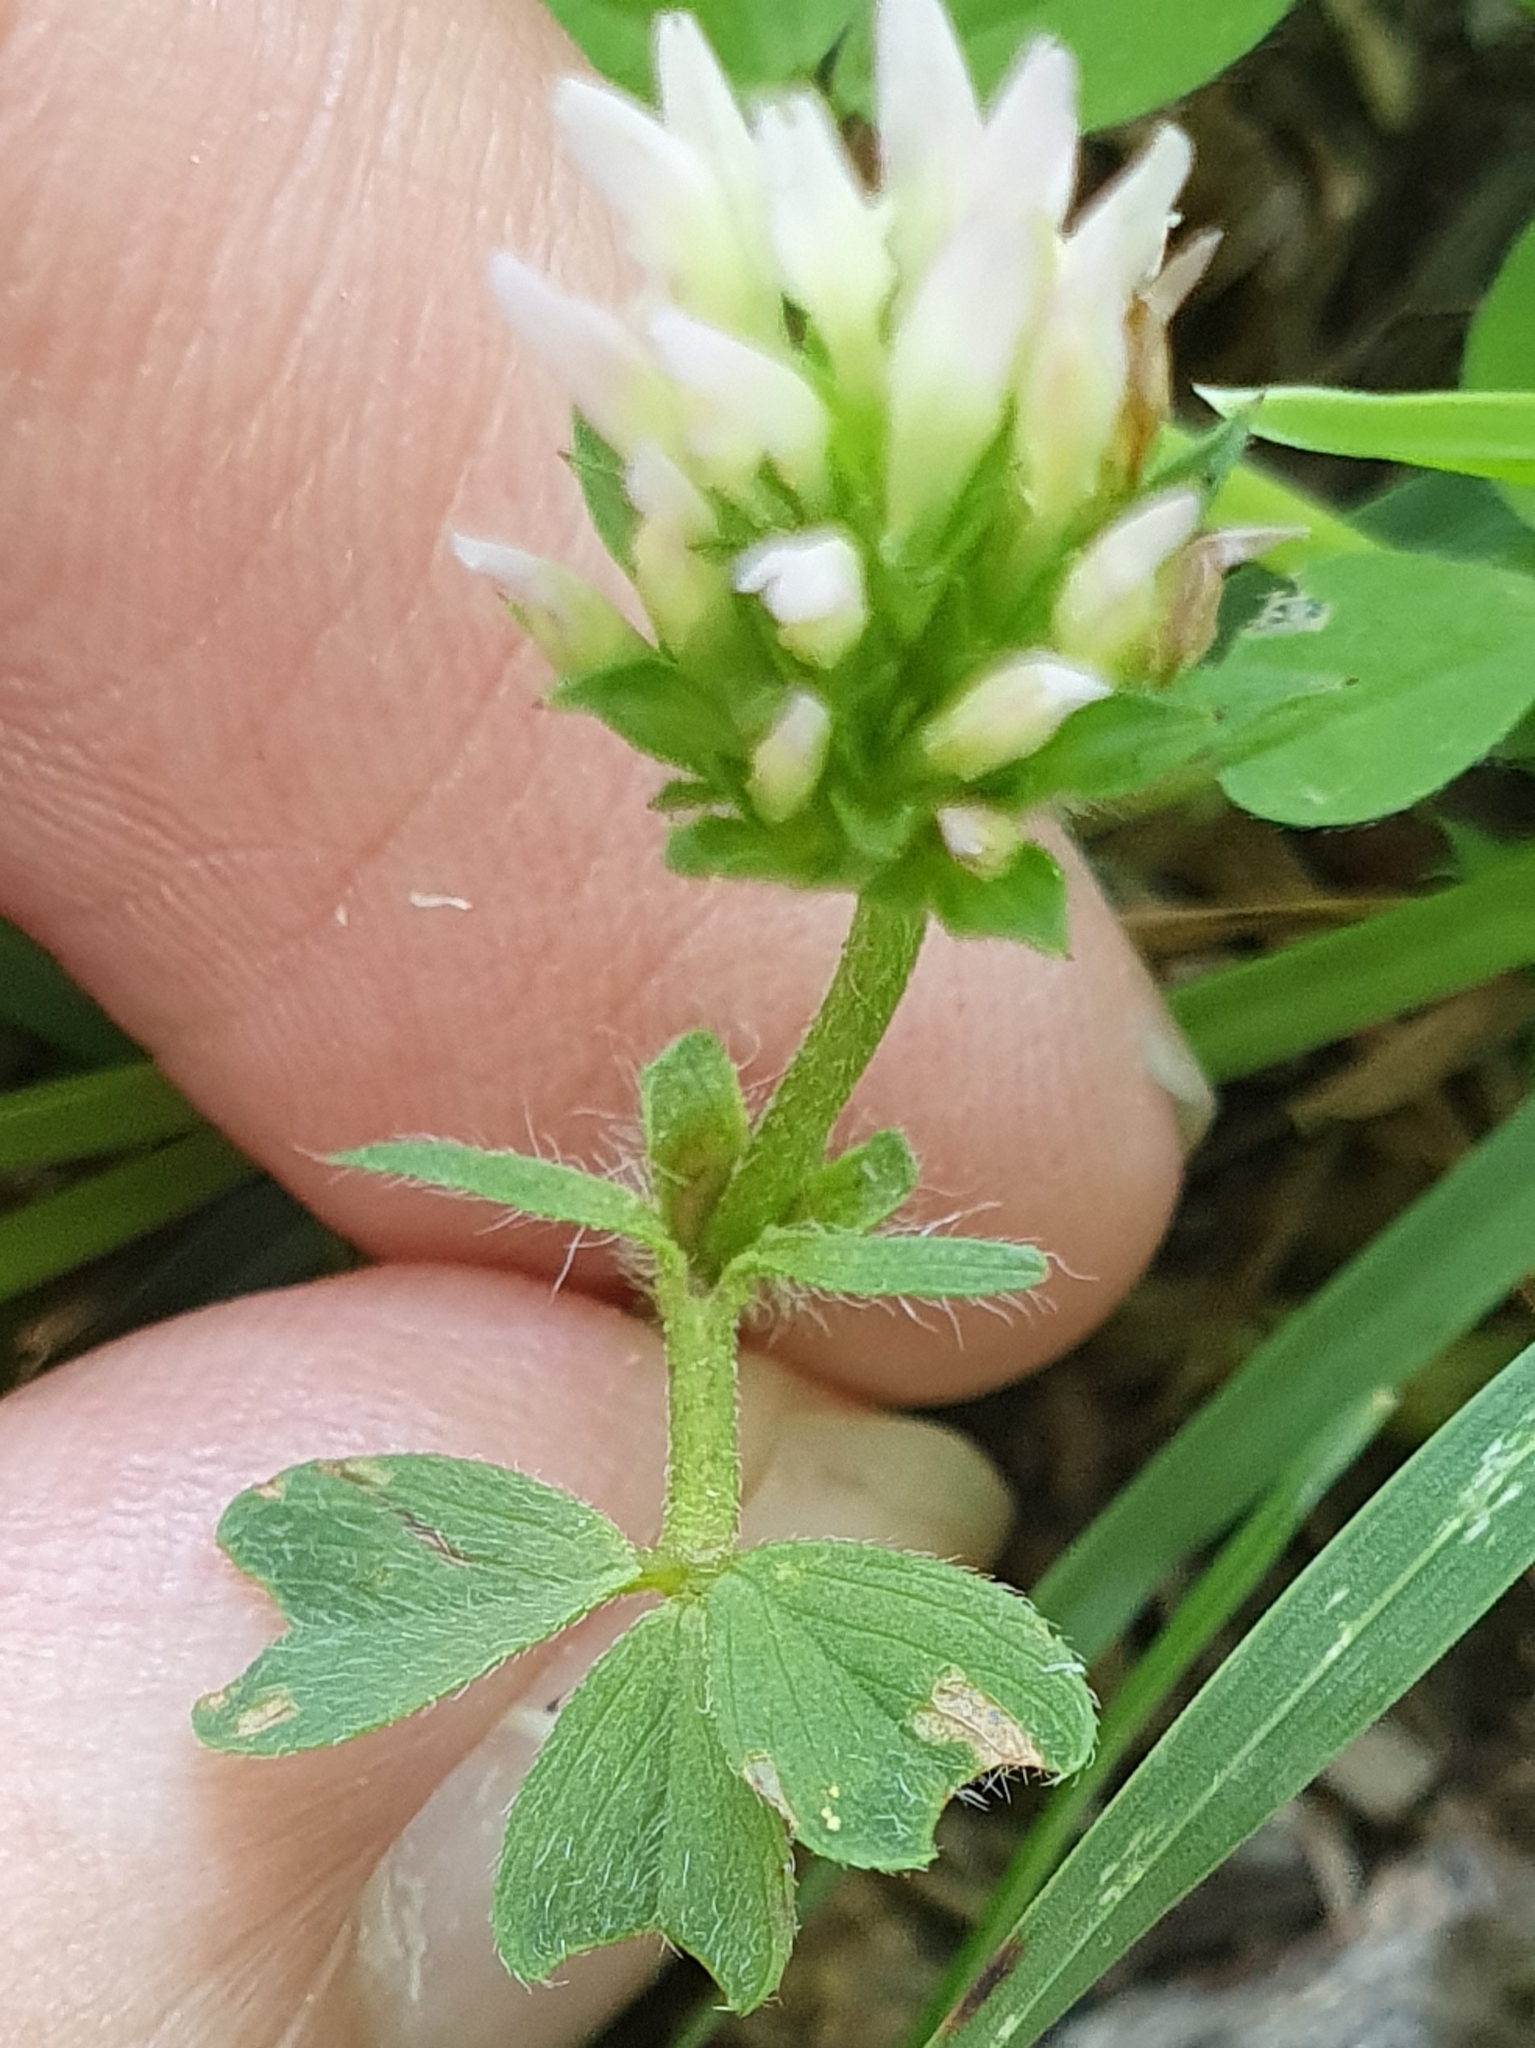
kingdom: Plantae
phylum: Tracheophyta
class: Magnoliopsida
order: Fabales
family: Fabaceae
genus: Trifolium
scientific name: Trifolium squamosum
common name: Sea clover
